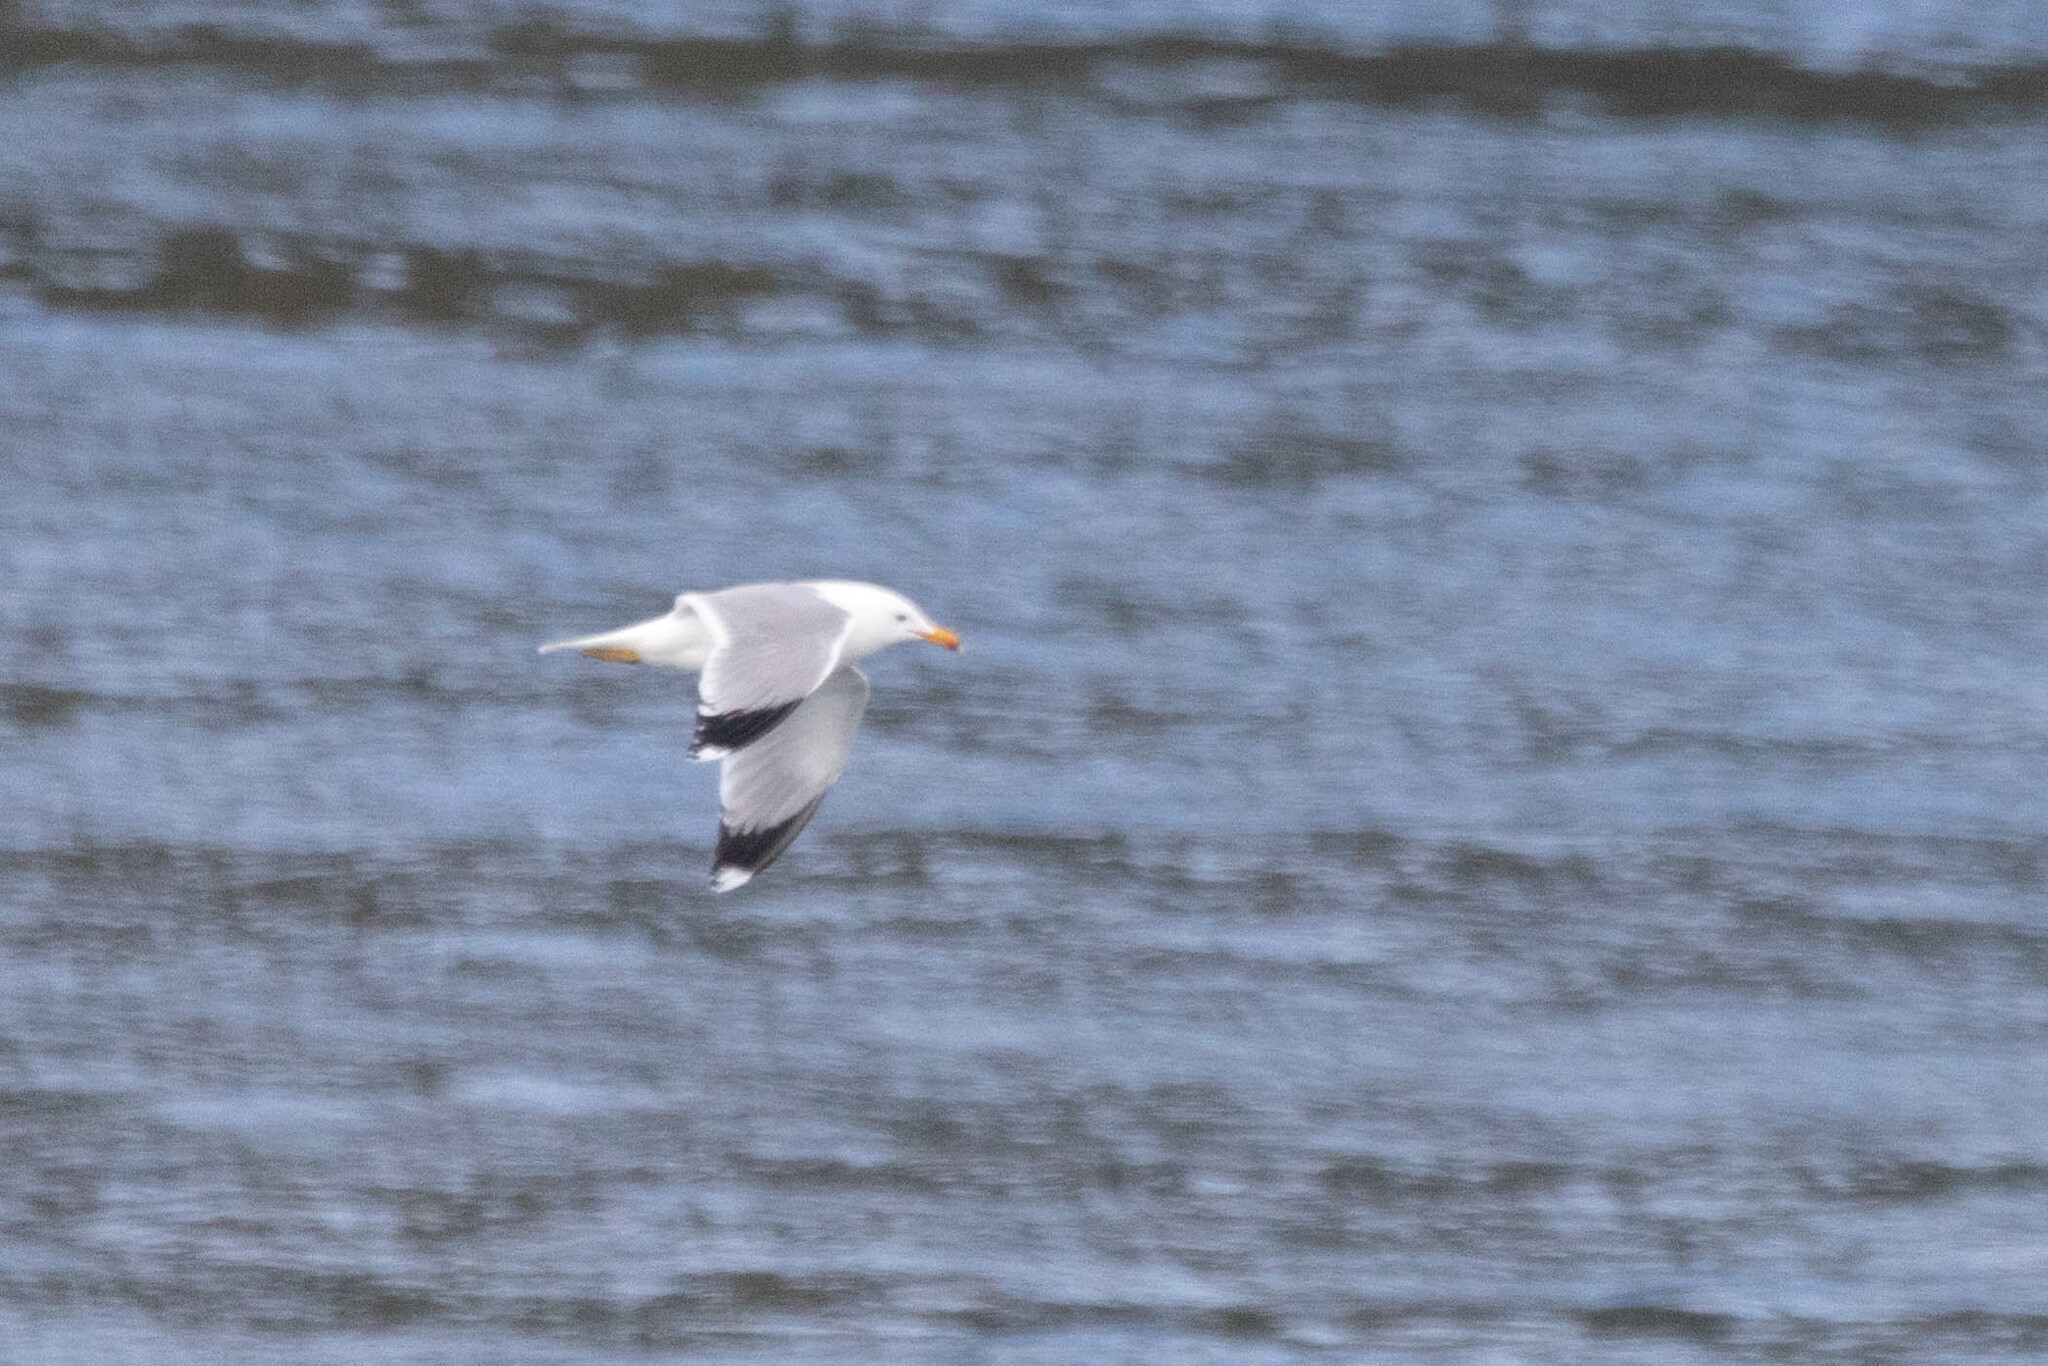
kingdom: Animalia
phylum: Chordata
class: Aves
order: Charadriiformes
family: Laridae
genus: Larus
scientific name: Larus californicus
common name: California gull
